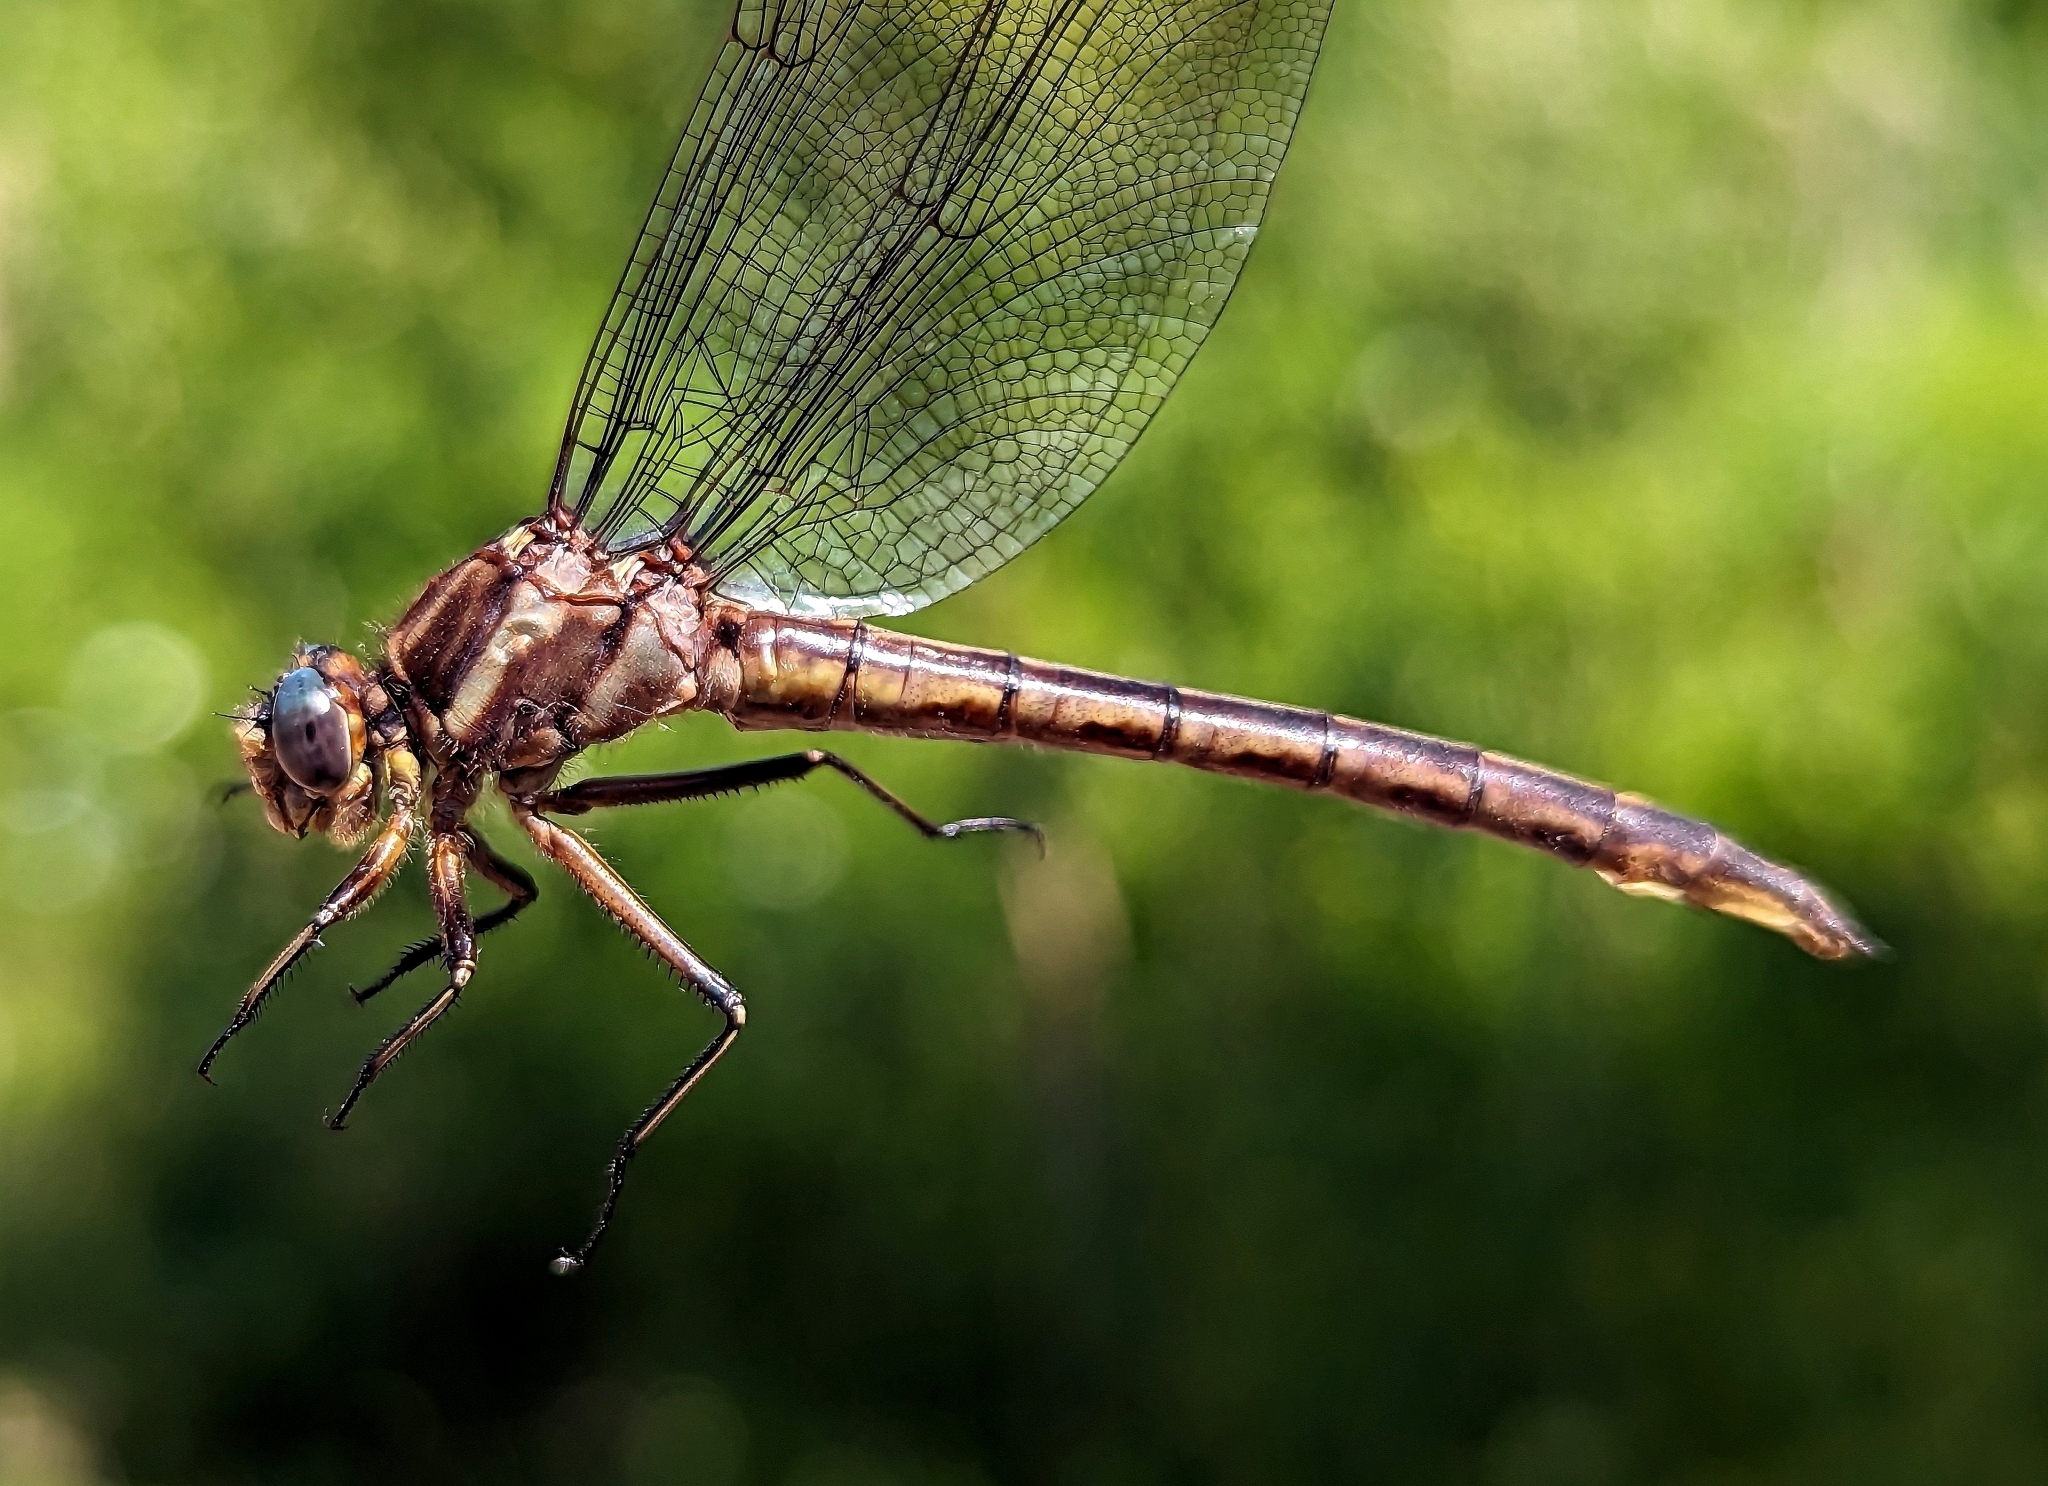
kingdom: Animalia
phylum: Arthropoda
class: Insecta
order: Odonata
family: Gomphidae
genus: Phanogomphus
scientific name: Phanogomphus spicatus
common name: Dusky clubtail
